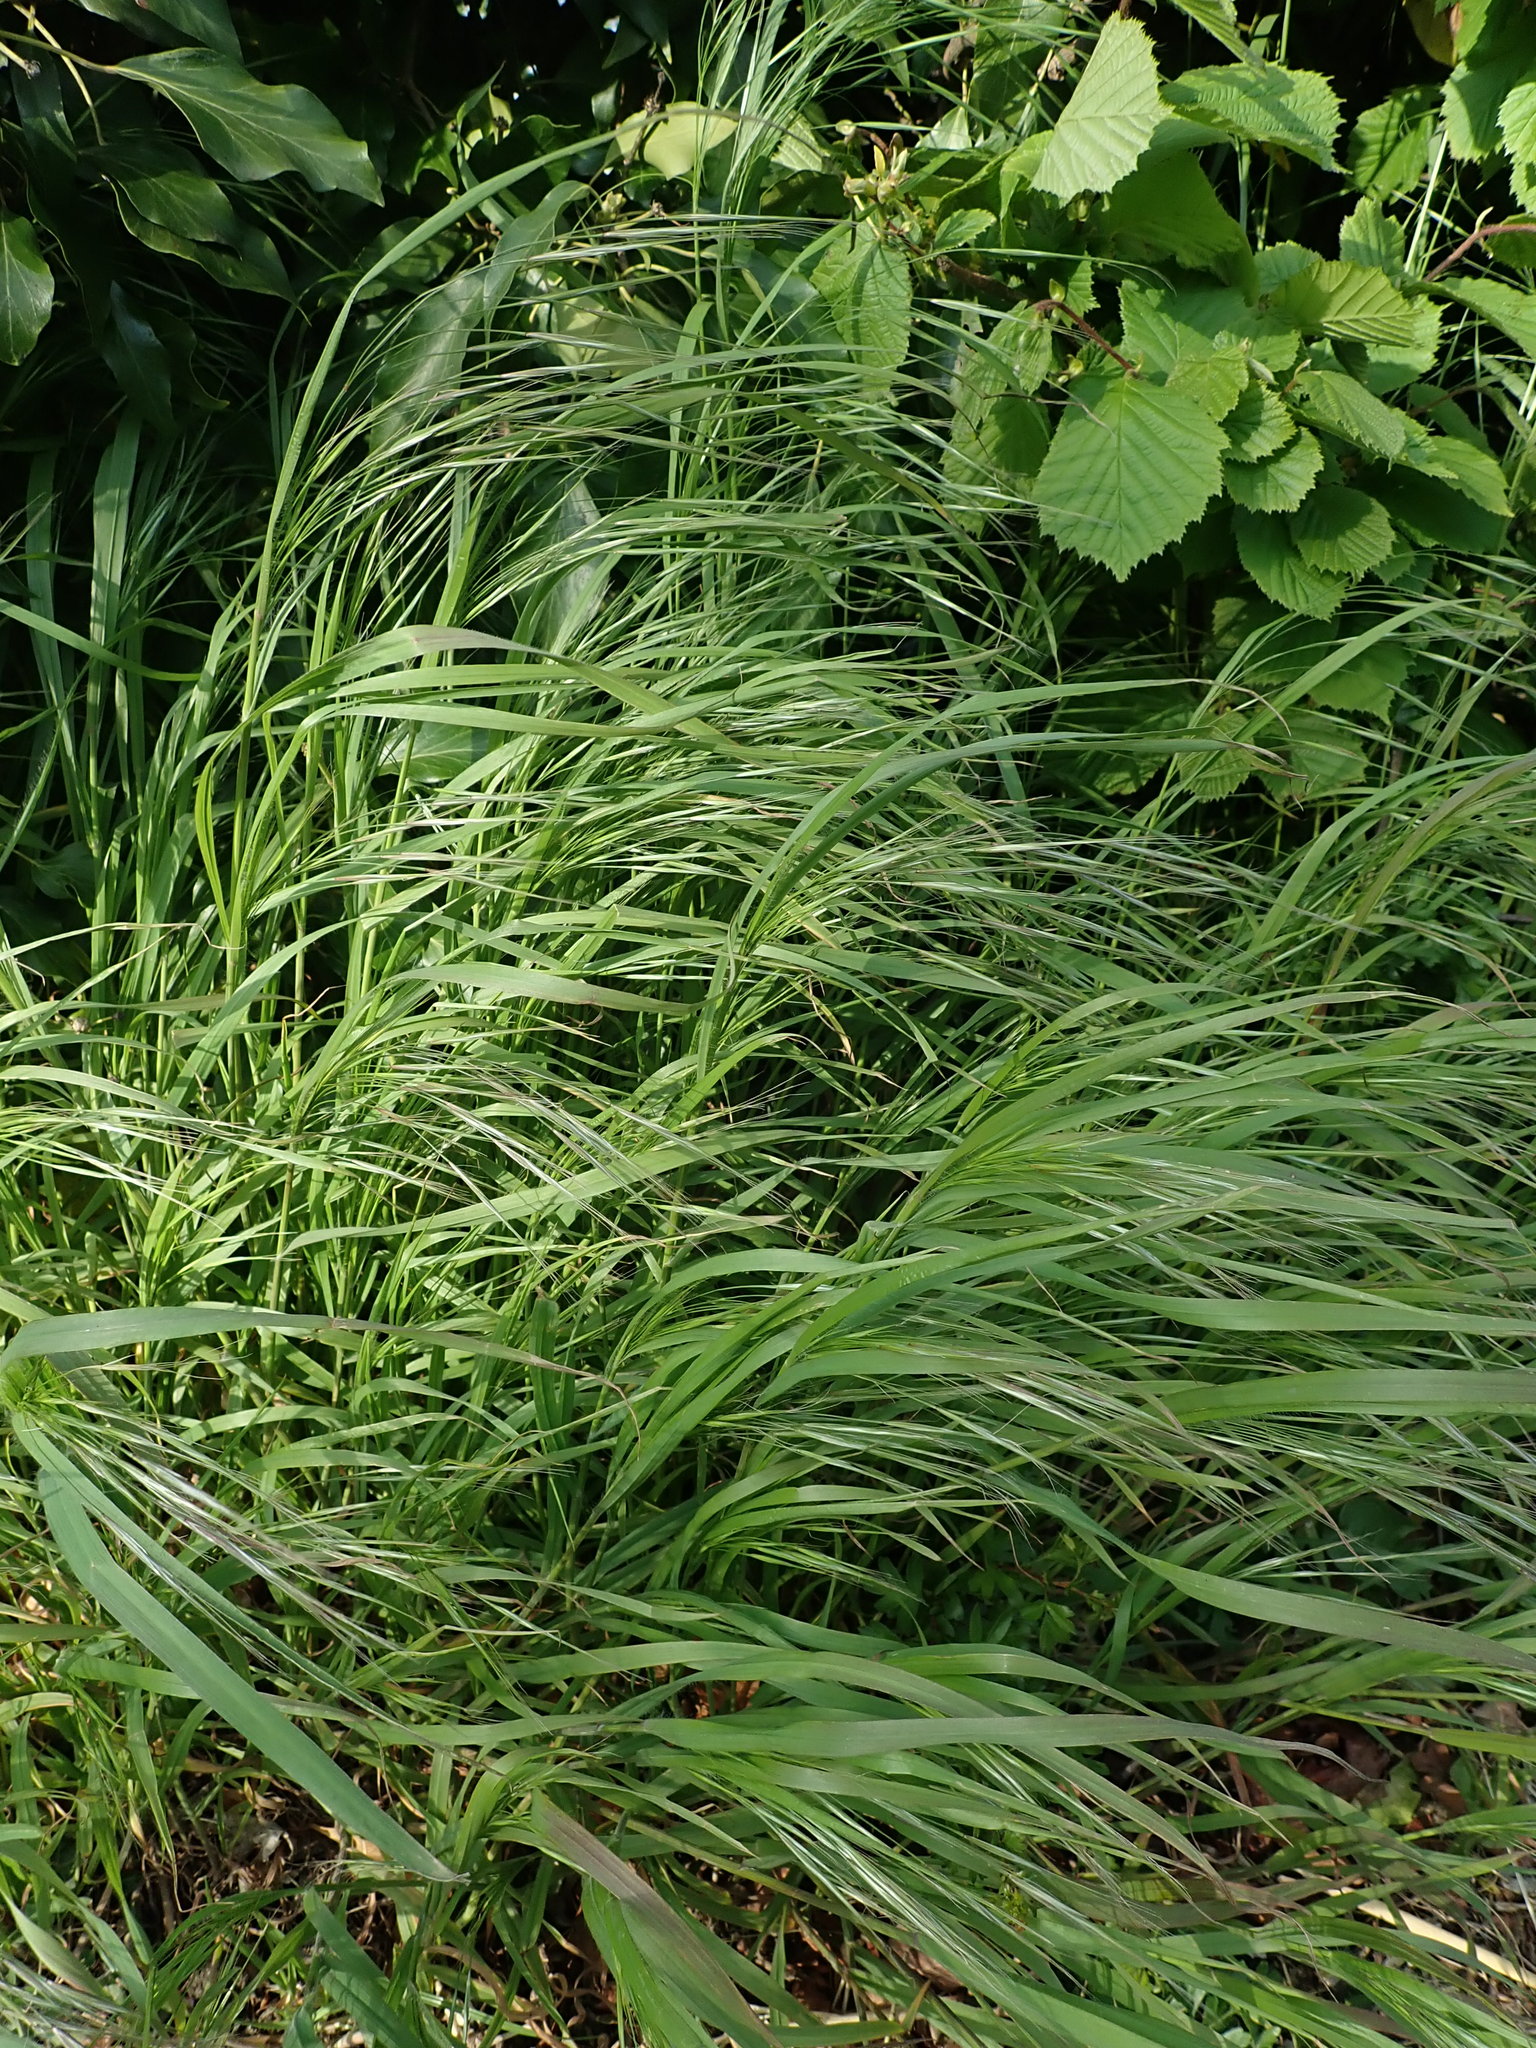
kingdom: Plantae
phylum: Tracheophyta
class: Liliopsida
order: Poales
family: Poaceae
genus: Bromus
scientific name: Bromus sterilis
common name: Poverty brome
